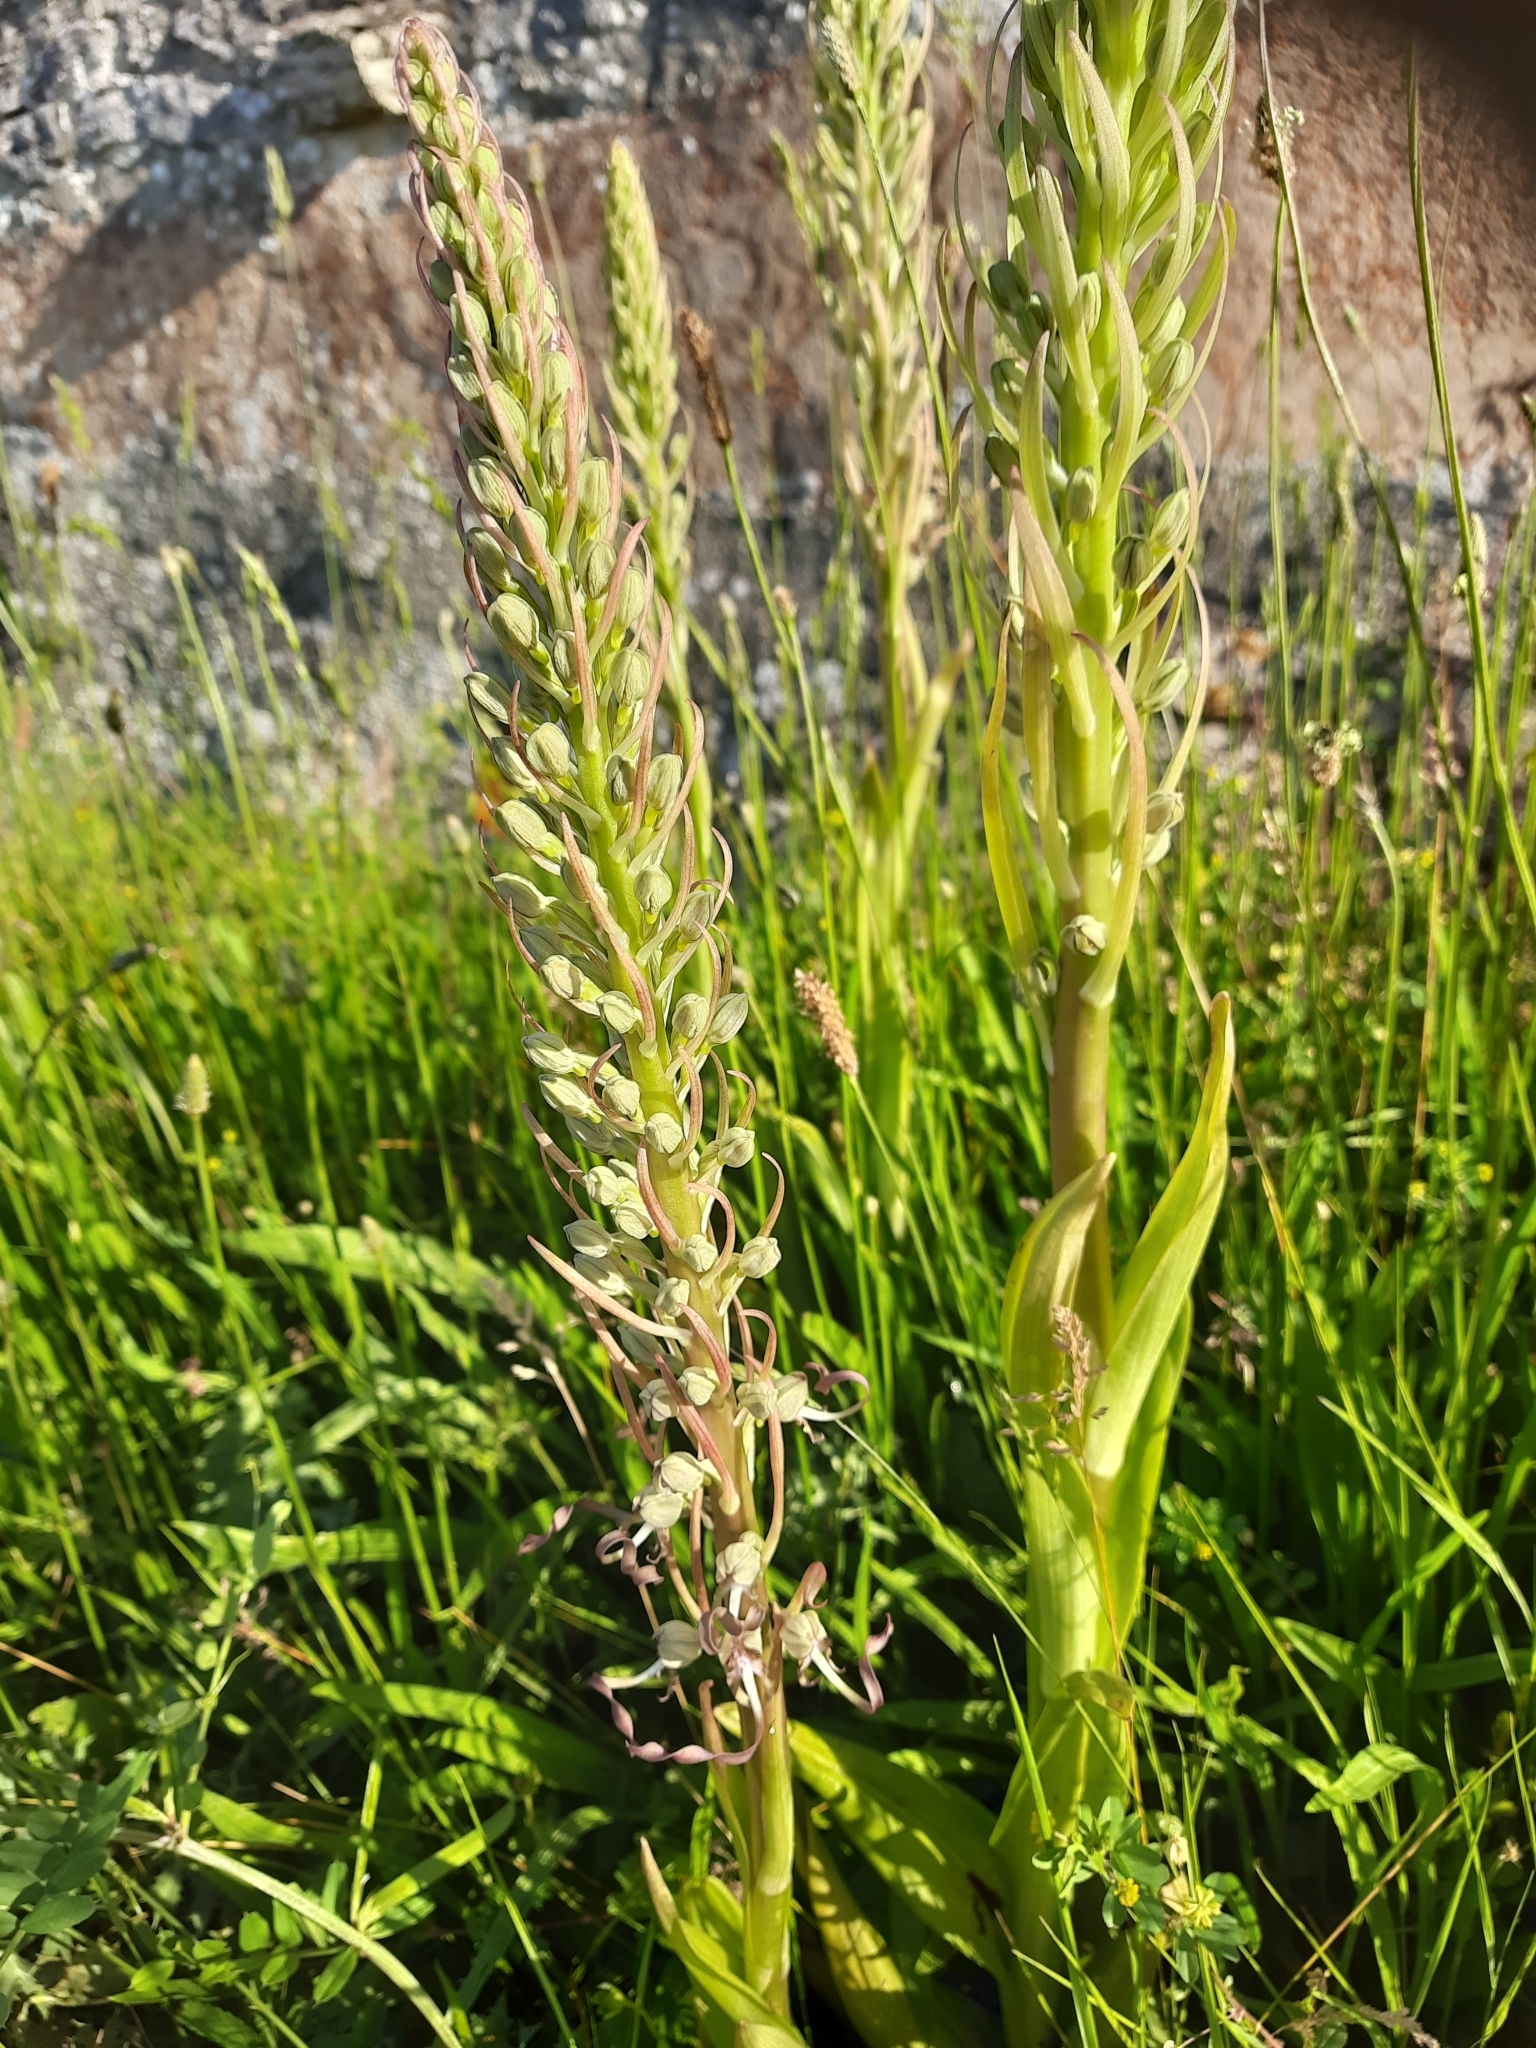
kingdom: Plantae
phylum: Tracheophyta
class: Liliopsida
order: Asparagales
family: Orchidaceae
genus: Himantoglossum
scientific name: Himantoglossum hircinum
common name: Lizard orchid
